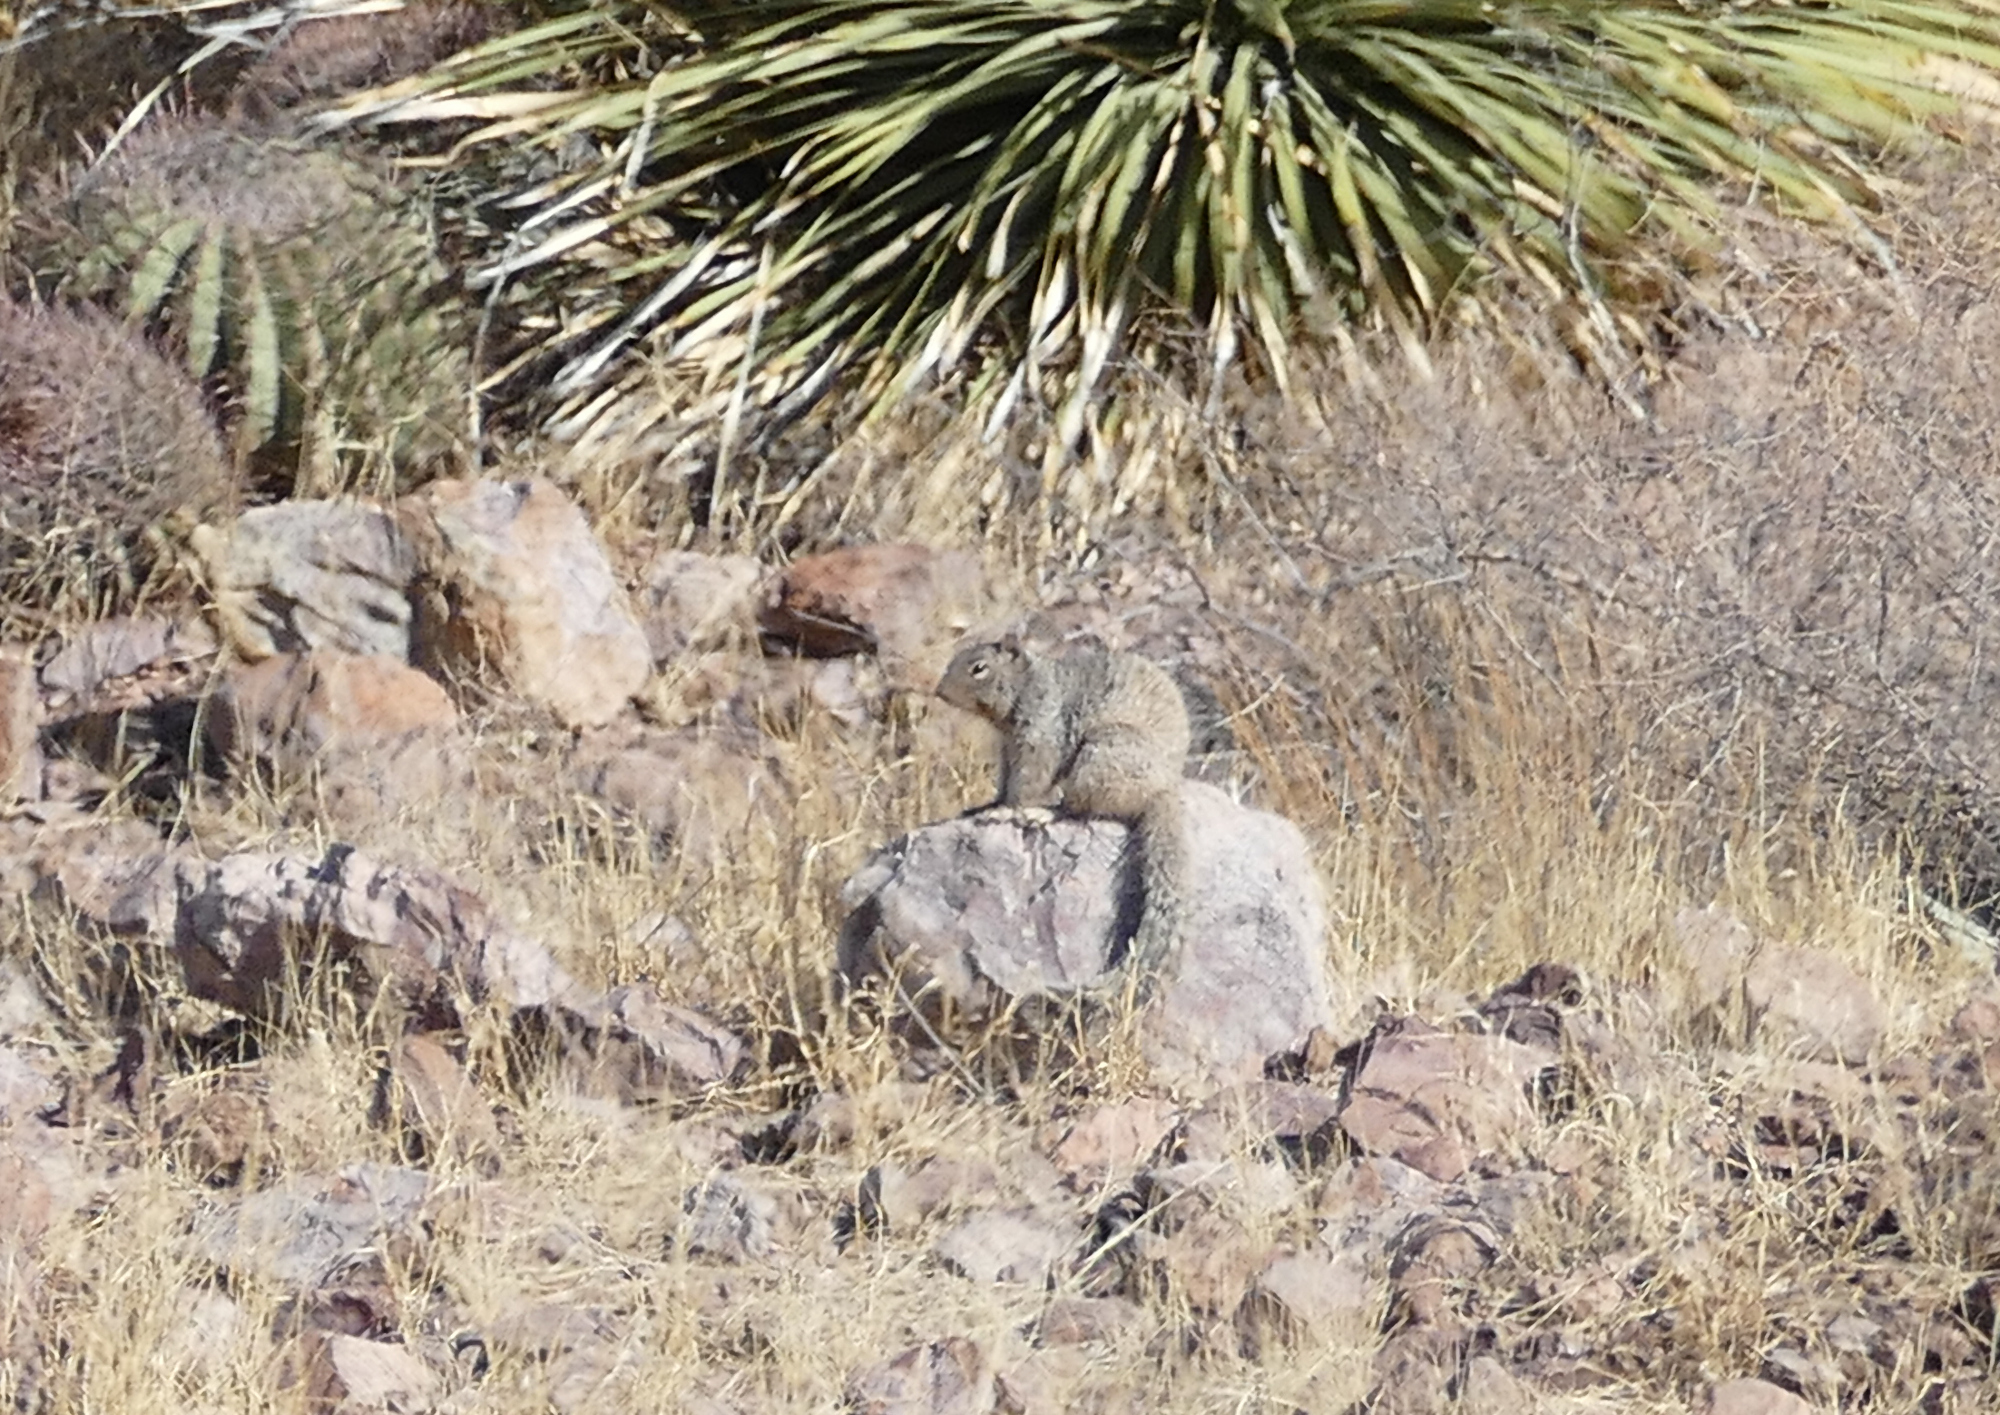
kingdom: Animalia
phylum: Chordata
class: Mammalia
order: Rodentia
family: Sciuridae
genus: Otospermophilus
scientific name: Otospermophilus variegatus
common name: Rock squirrel
